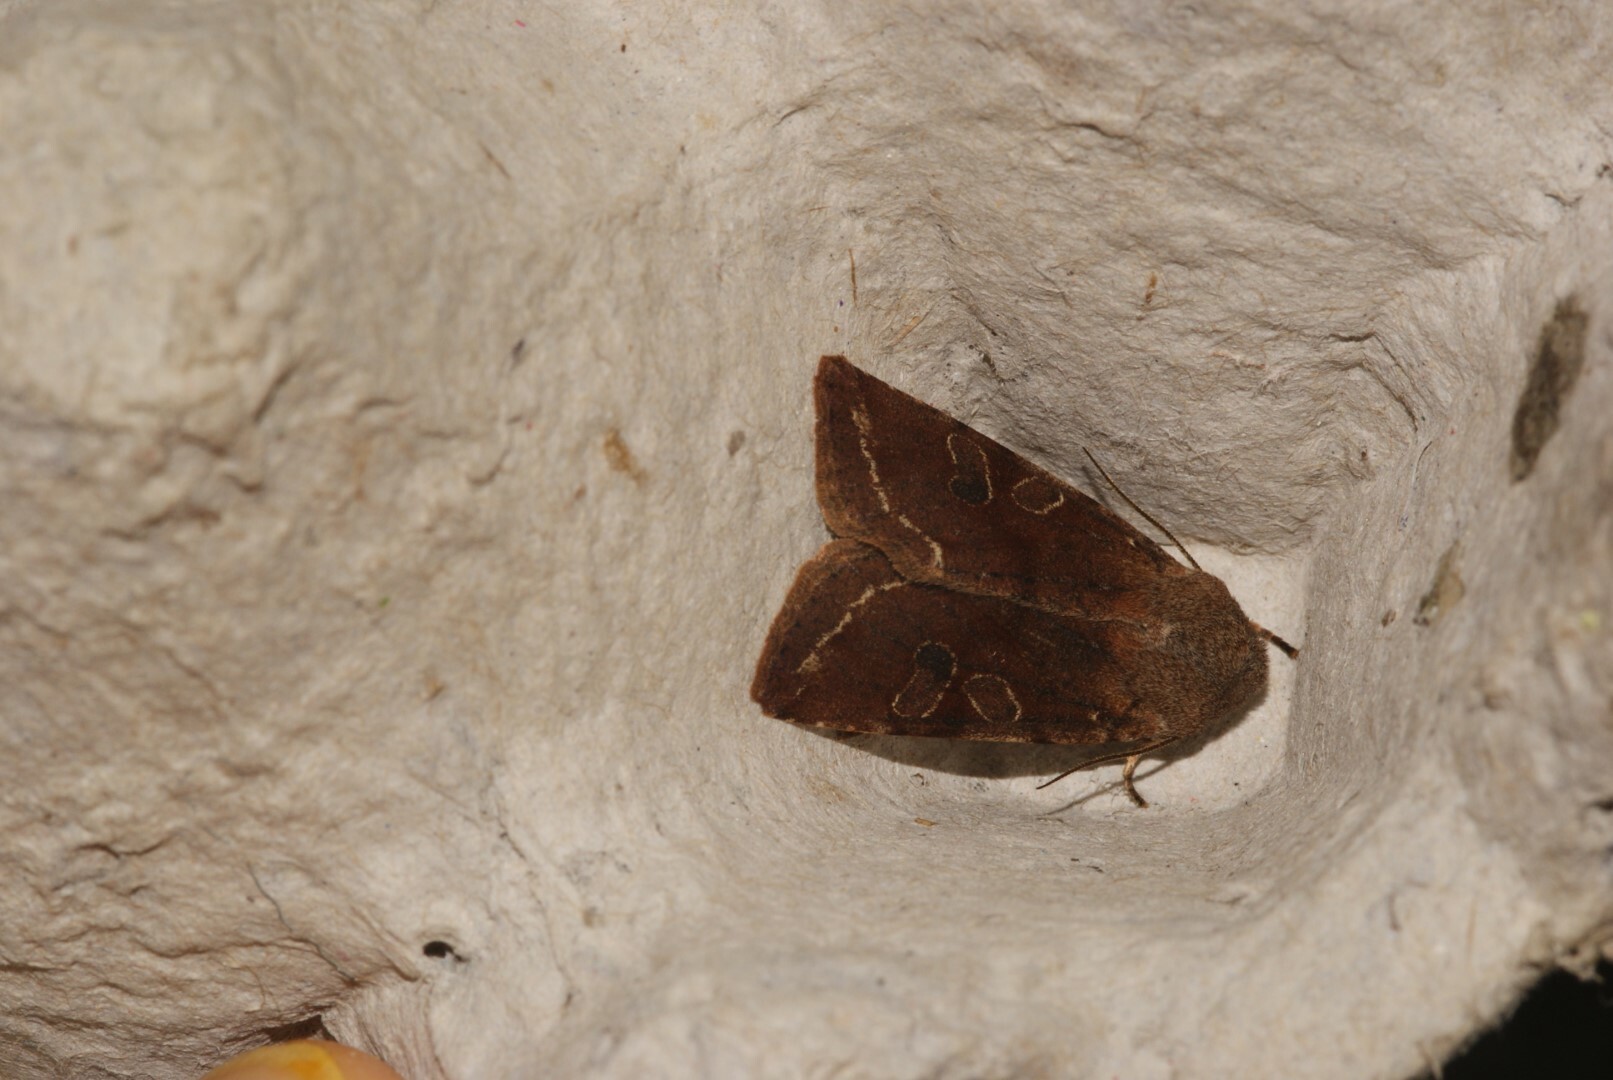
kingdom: Animalia
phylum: Arthropoda
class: Insecta
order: Lepidoptera
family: Noctuidae
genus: Orthosia
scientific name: Orthosia incerta
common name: Clouded drab
